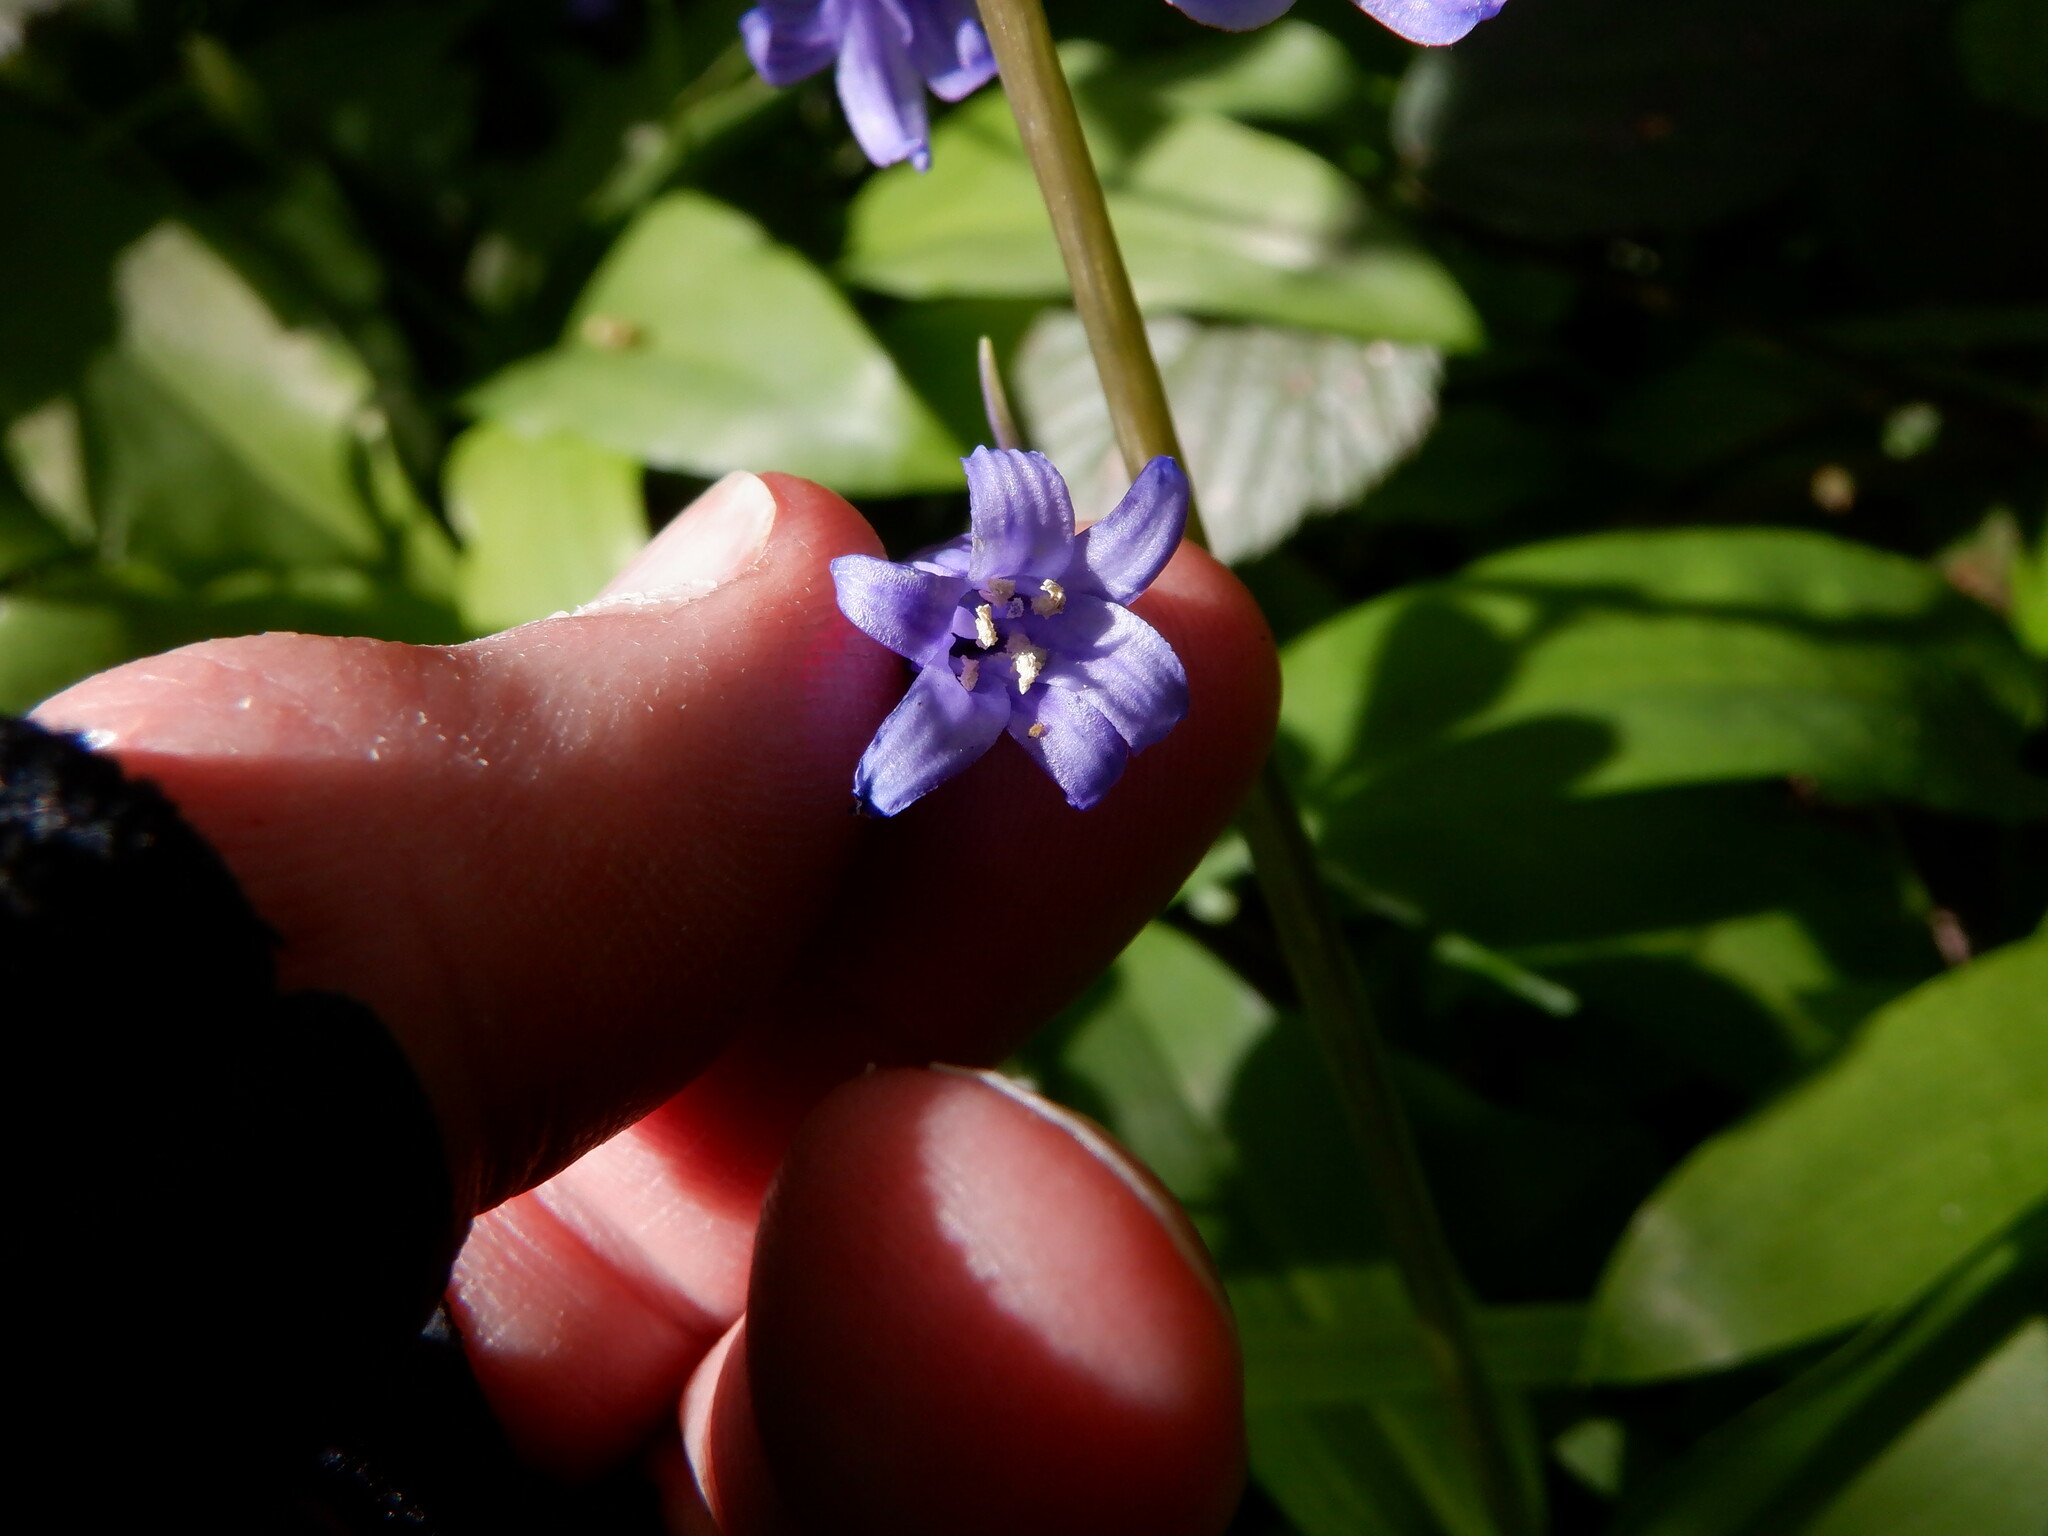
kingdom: Plantae
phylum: Tracheophyta
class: Liliopsida
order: Asparagales
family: Asparagaceae
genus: Hyacinthoides
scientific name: Hyacinthoides non-scripta
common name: Bluebell
